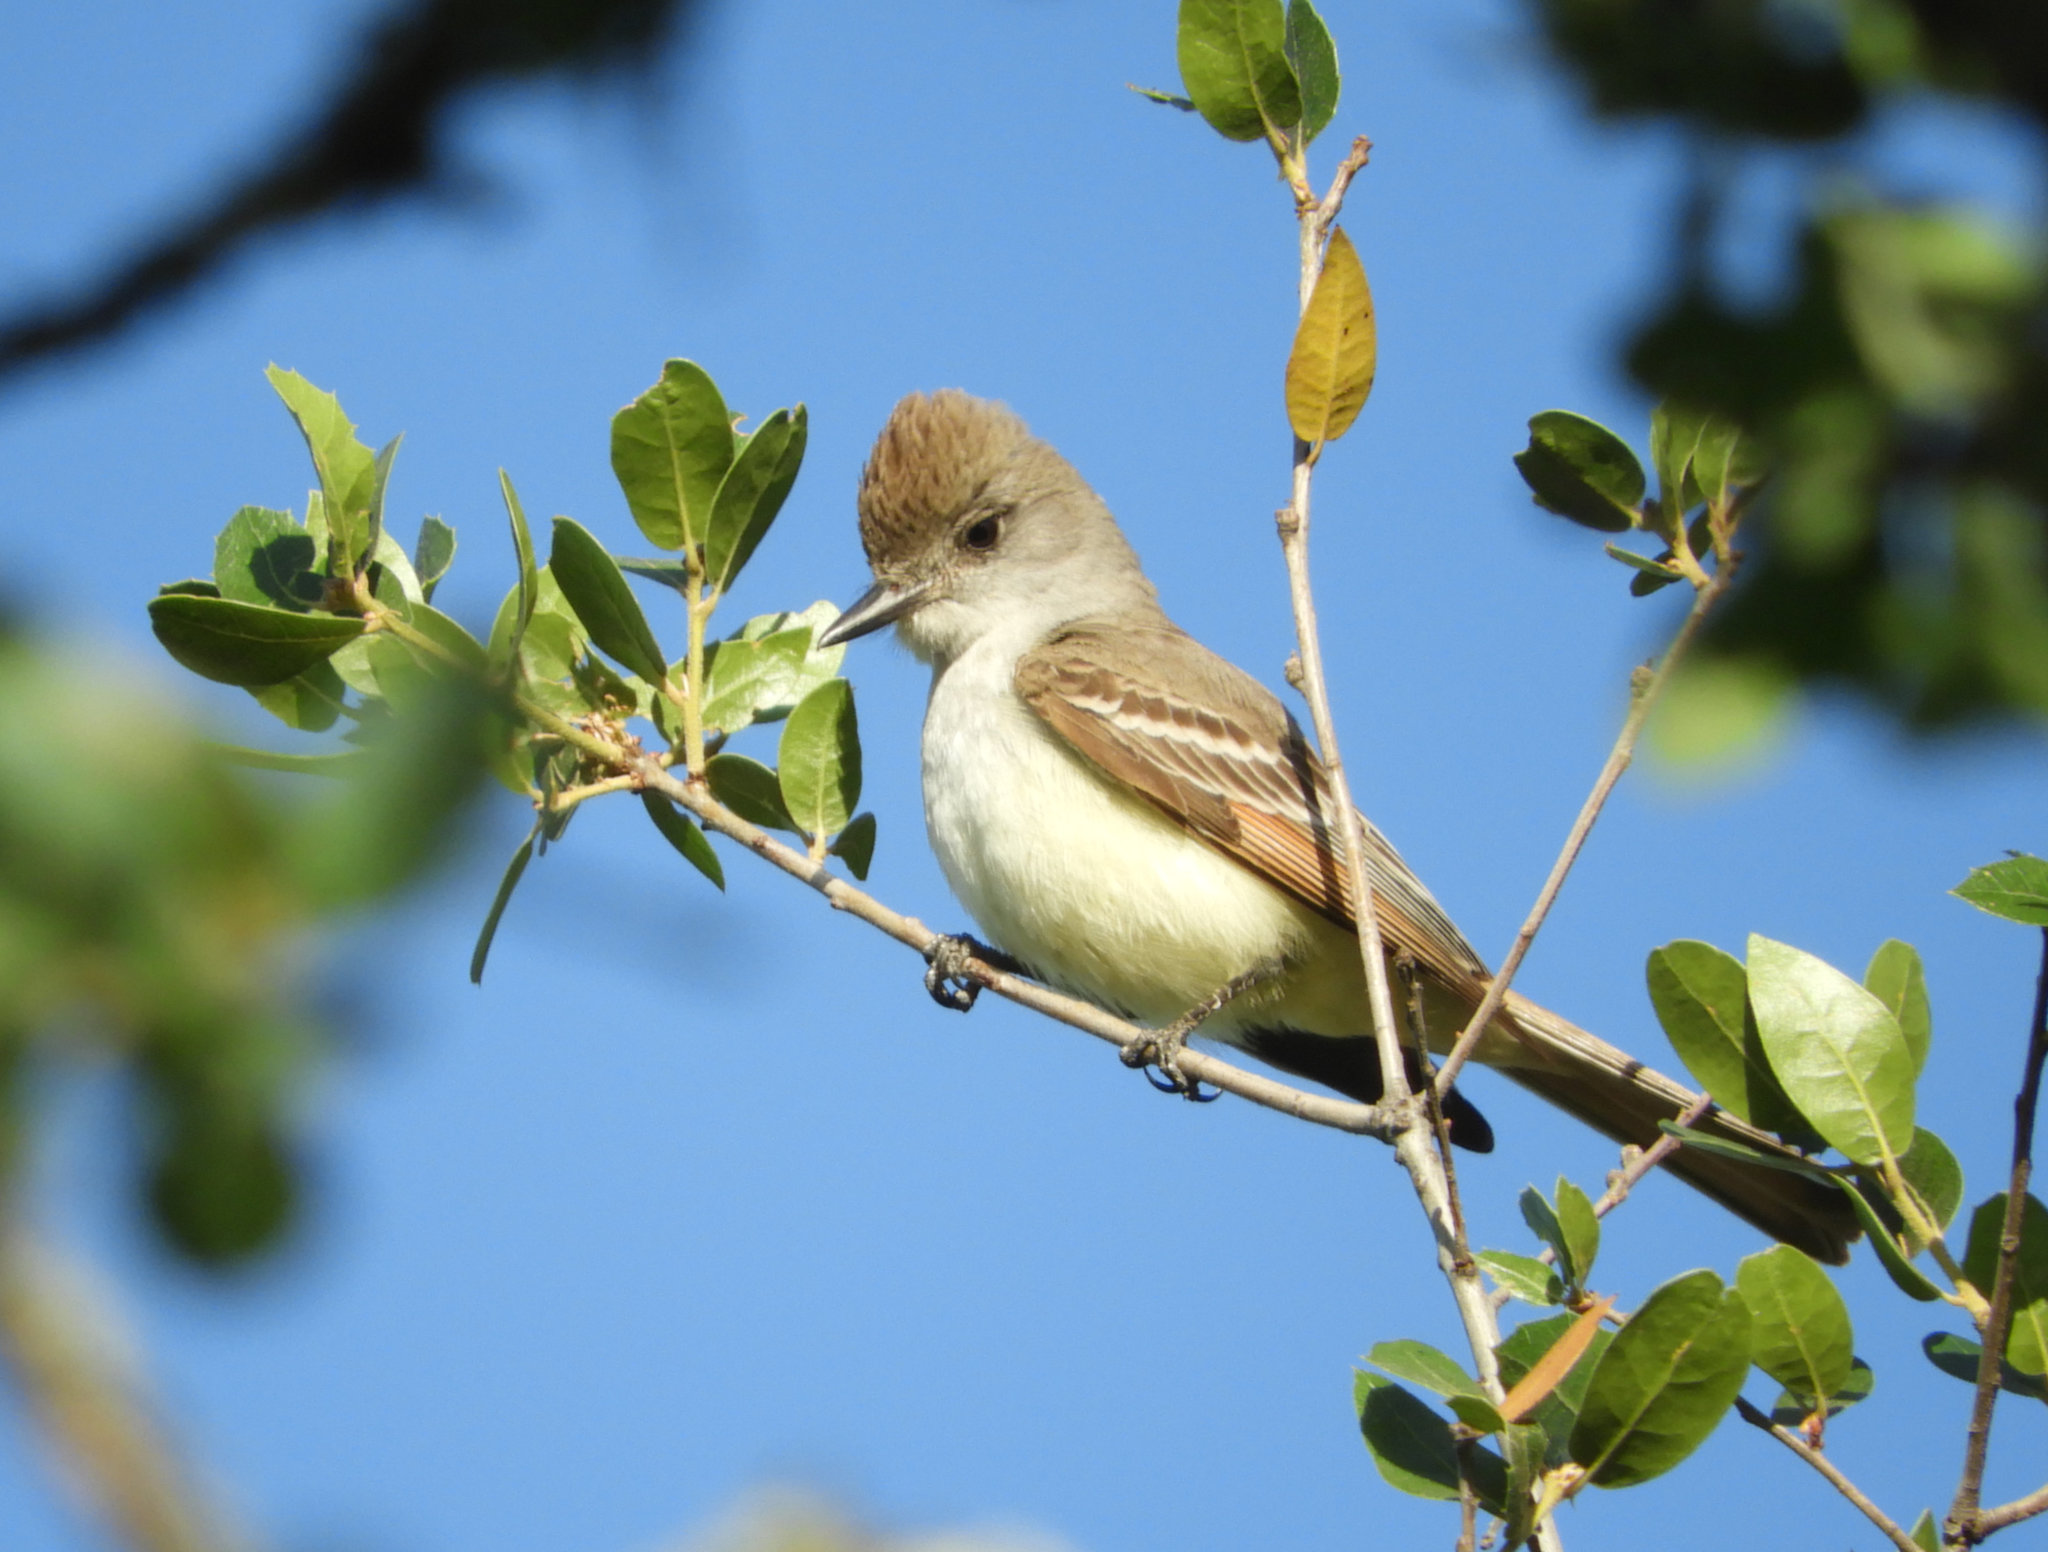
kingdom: Animalia
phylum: Chordata
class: Aves
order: Passeriformes
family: Tyrannidae
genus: Myiarchus
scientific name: Myiarchus cinerascens
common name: Ash-throated flycatcher
